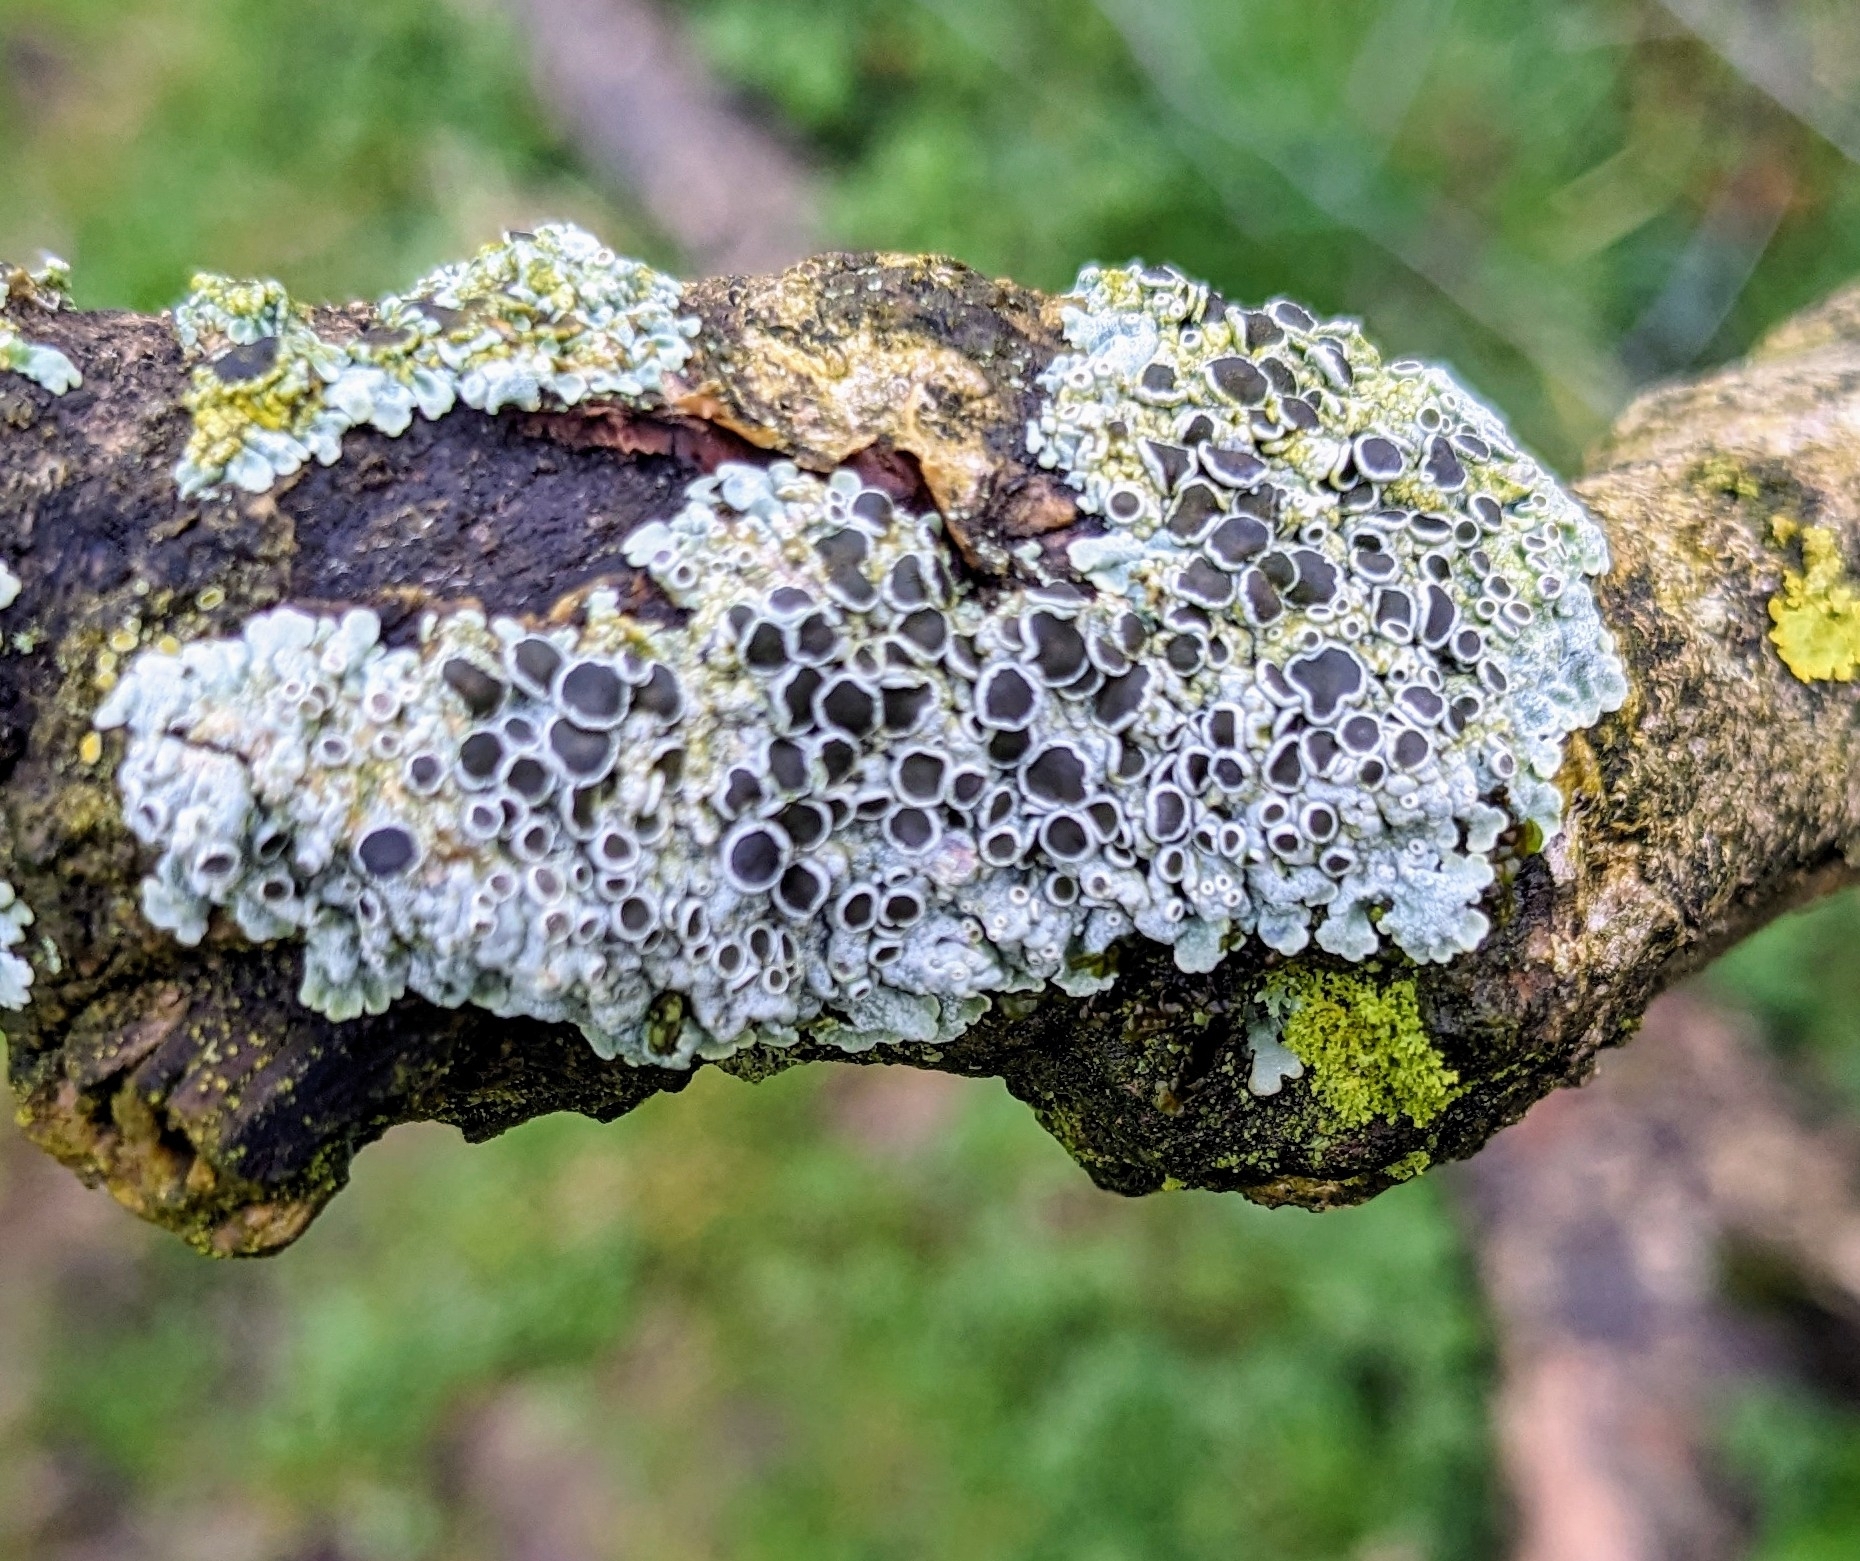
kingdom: Fungi
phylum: Ascomycota
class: Lecanoromycetes
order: Caliciales
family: Physciaceae
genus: Physcia
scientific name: Physcia aipolia
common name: Hoary rosette lichen
